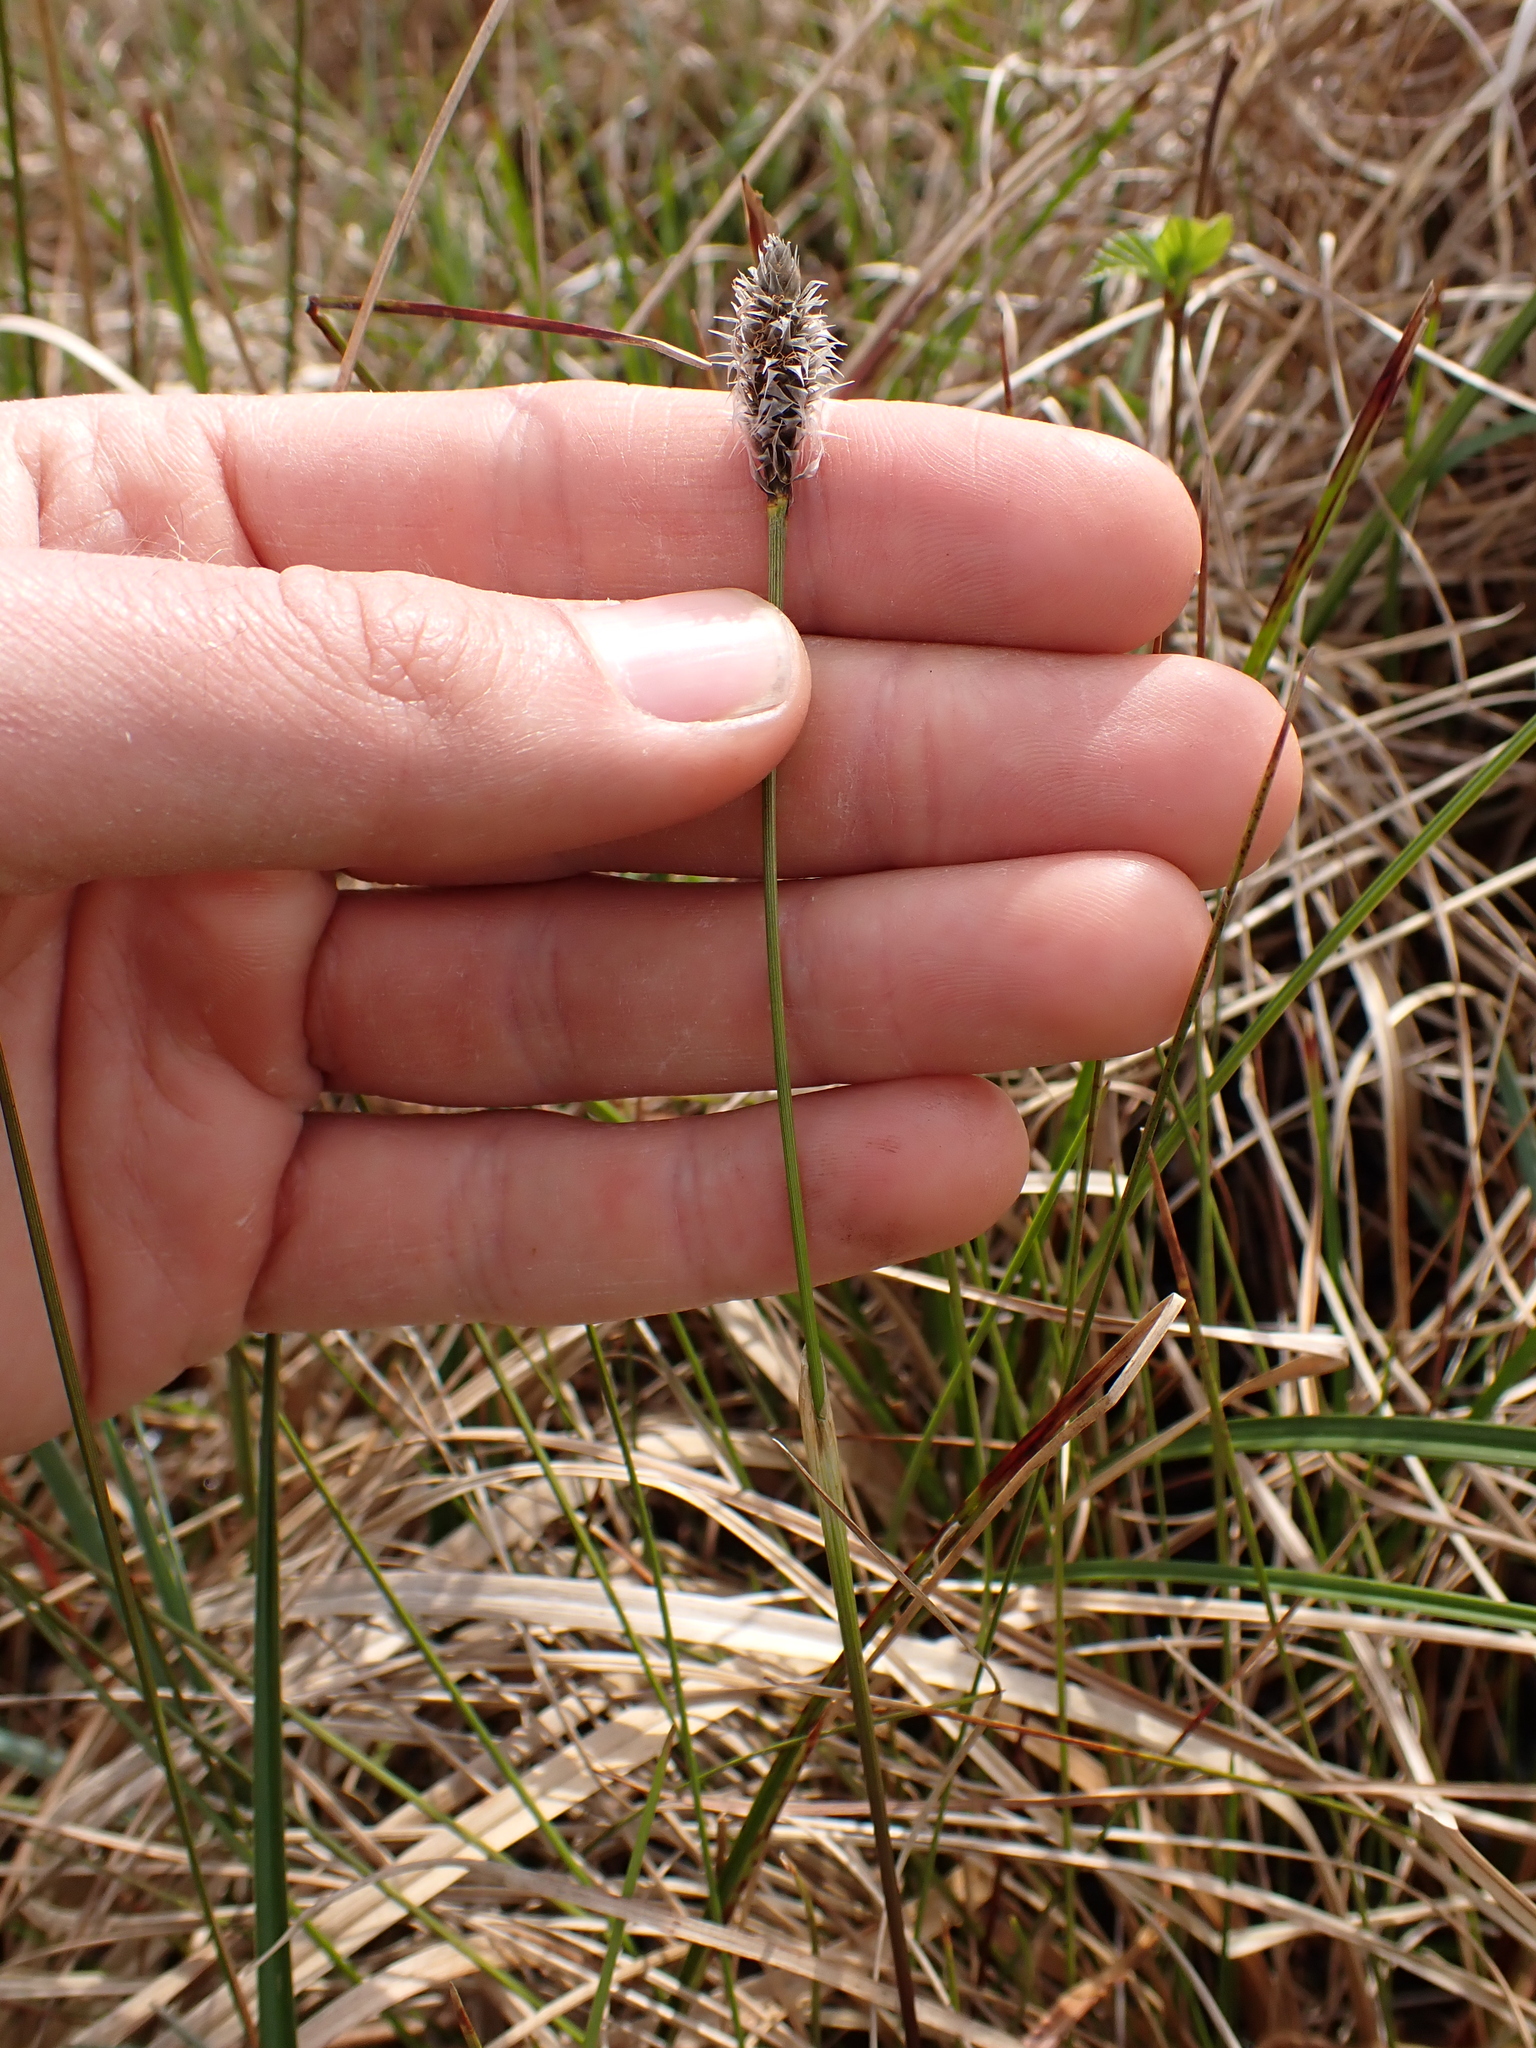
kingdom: Plantae
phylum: Tracheophyta
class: Liliopsida
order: Poales
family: Cyperaceae
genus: Eriophorum
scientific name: Eriophorum vaginatum
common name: Hare's-tail cottongrass
